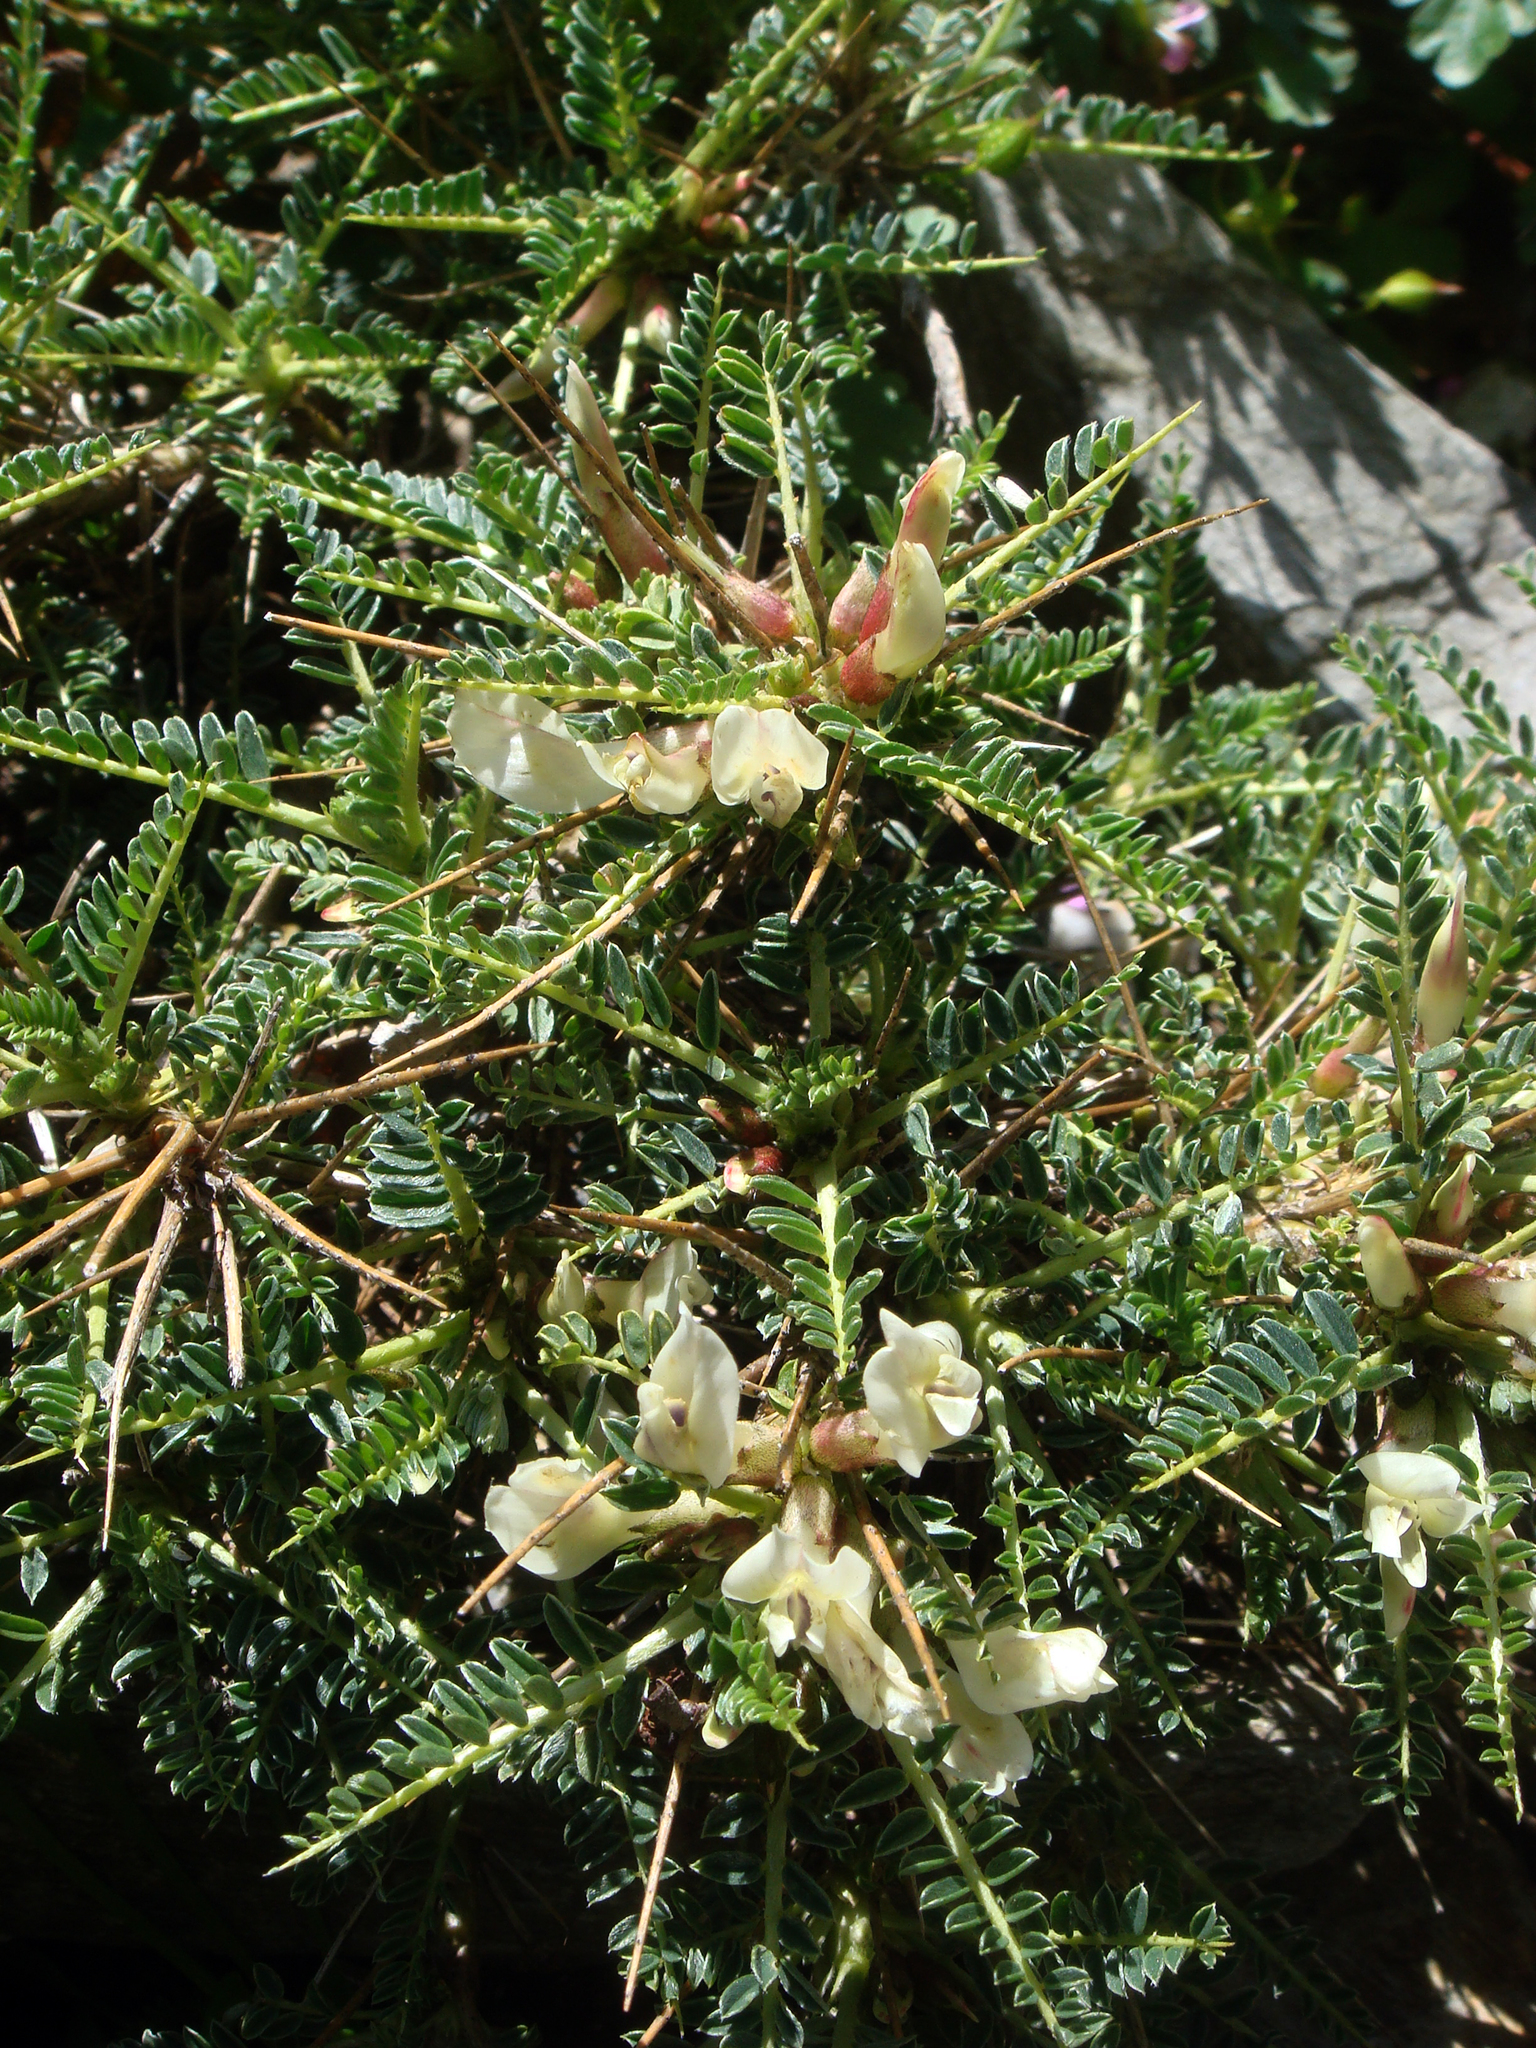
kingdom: Plantae
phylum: Tracheophyta
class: Magnoliopsida
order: Fabales
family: Fabaceae
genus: Astragalus
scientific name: Astragalus genargenteus
